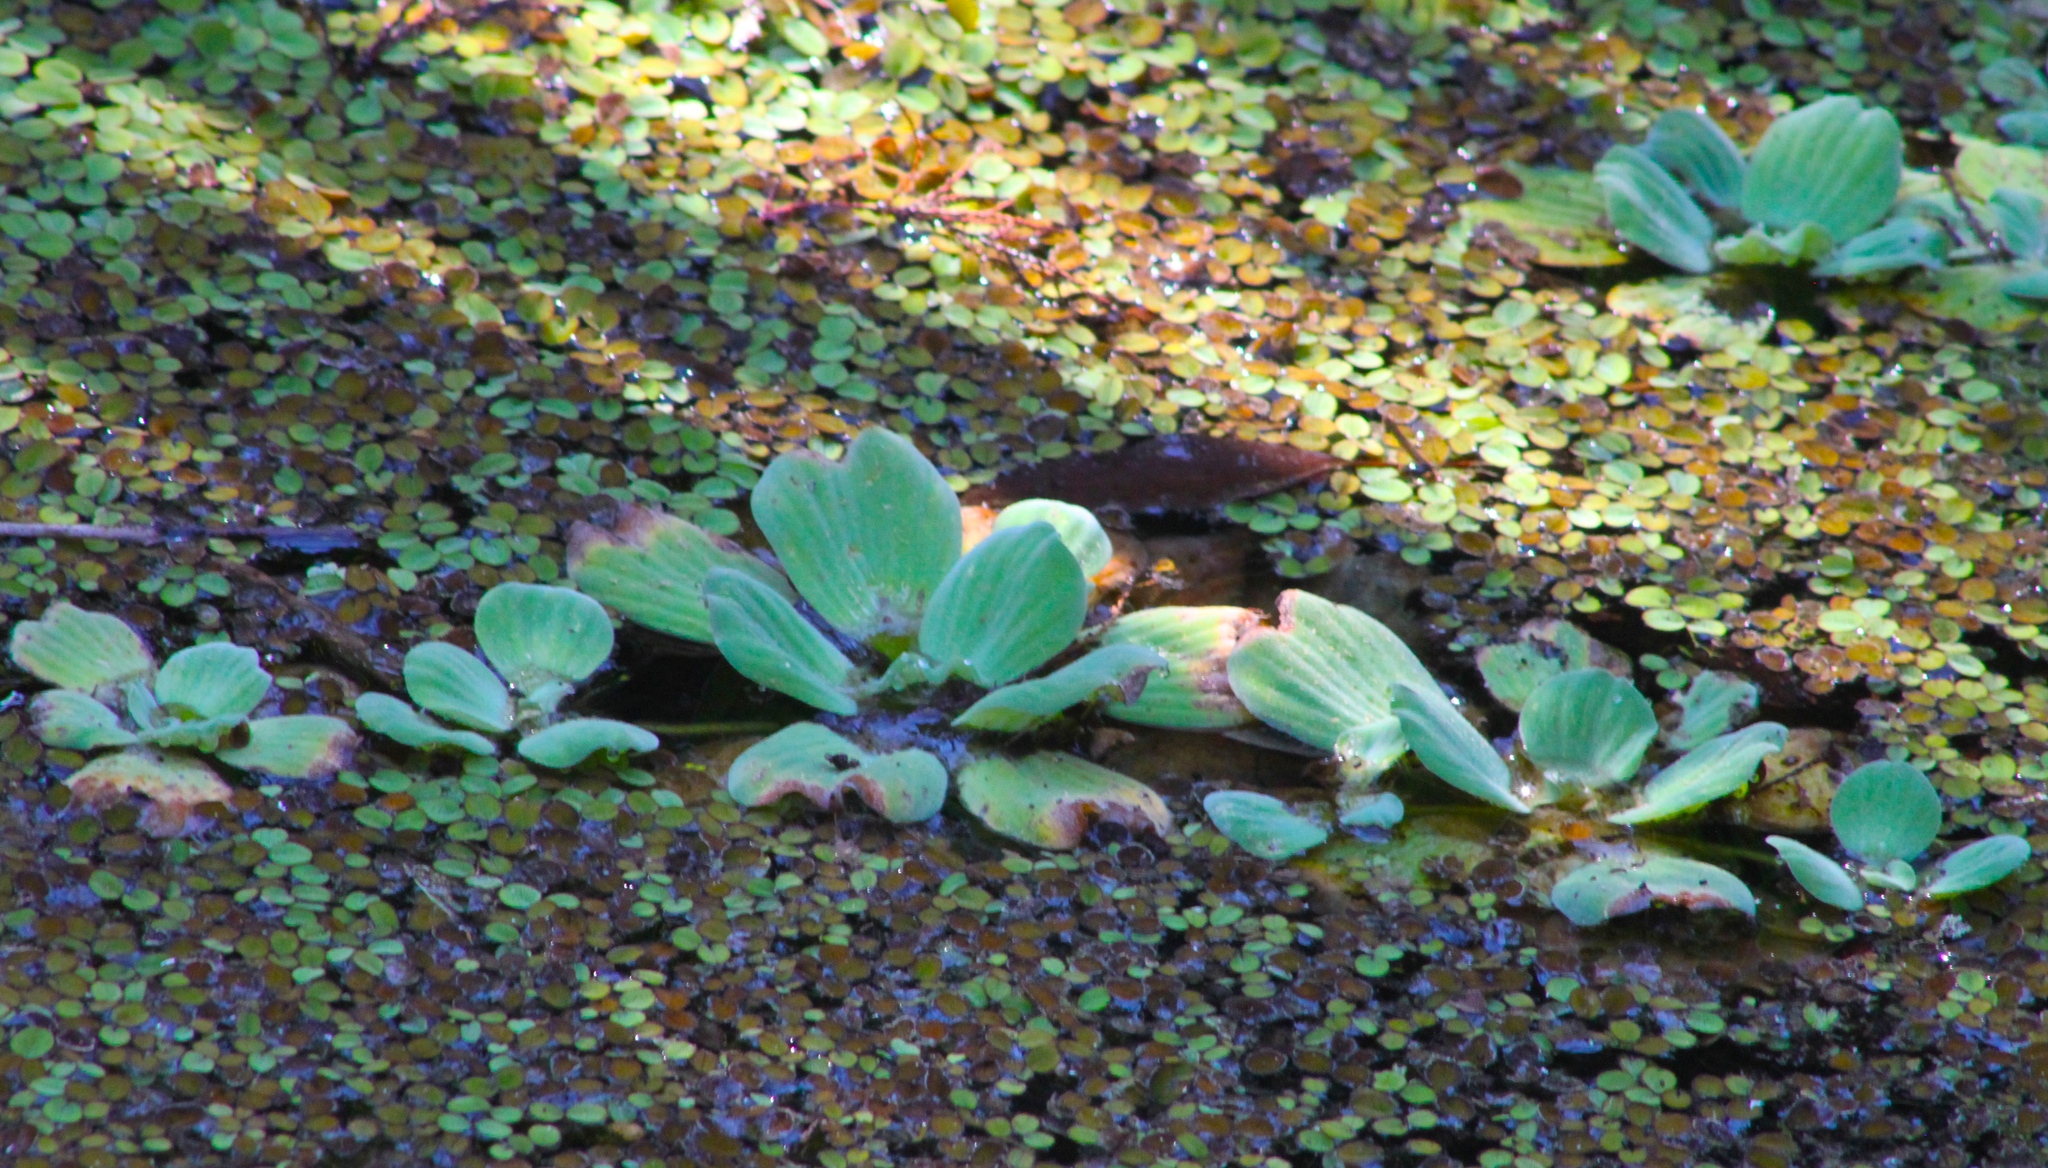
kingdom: Plantae
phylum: Tracheophyta
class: Liliopsida
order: Alismatales
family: Araceae
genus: Pistia
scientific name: Pistia stratiotes
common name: Water lettuce
